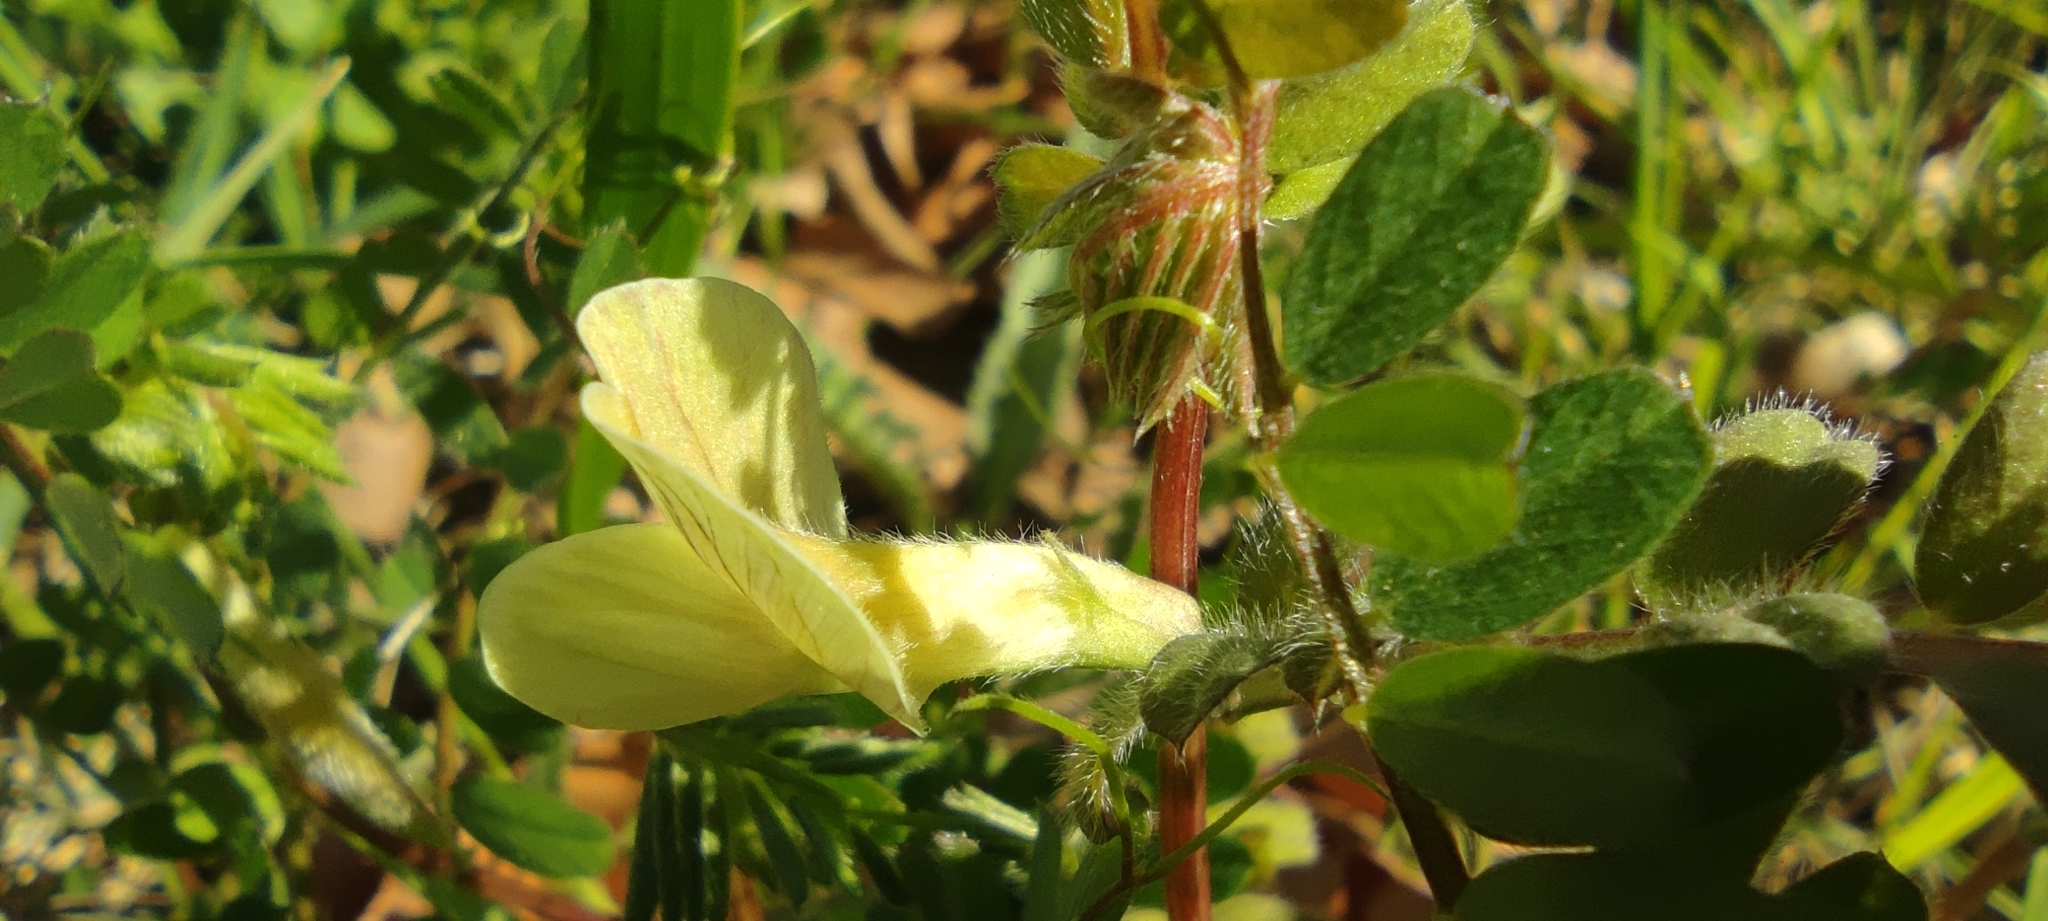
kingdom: Plantae
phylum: Tracheophyta
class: Magnoliopsida
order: Fabales
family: Fabaceae
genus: Vicia
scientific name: Vicia hybrida
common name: Hairy yellow vetch
